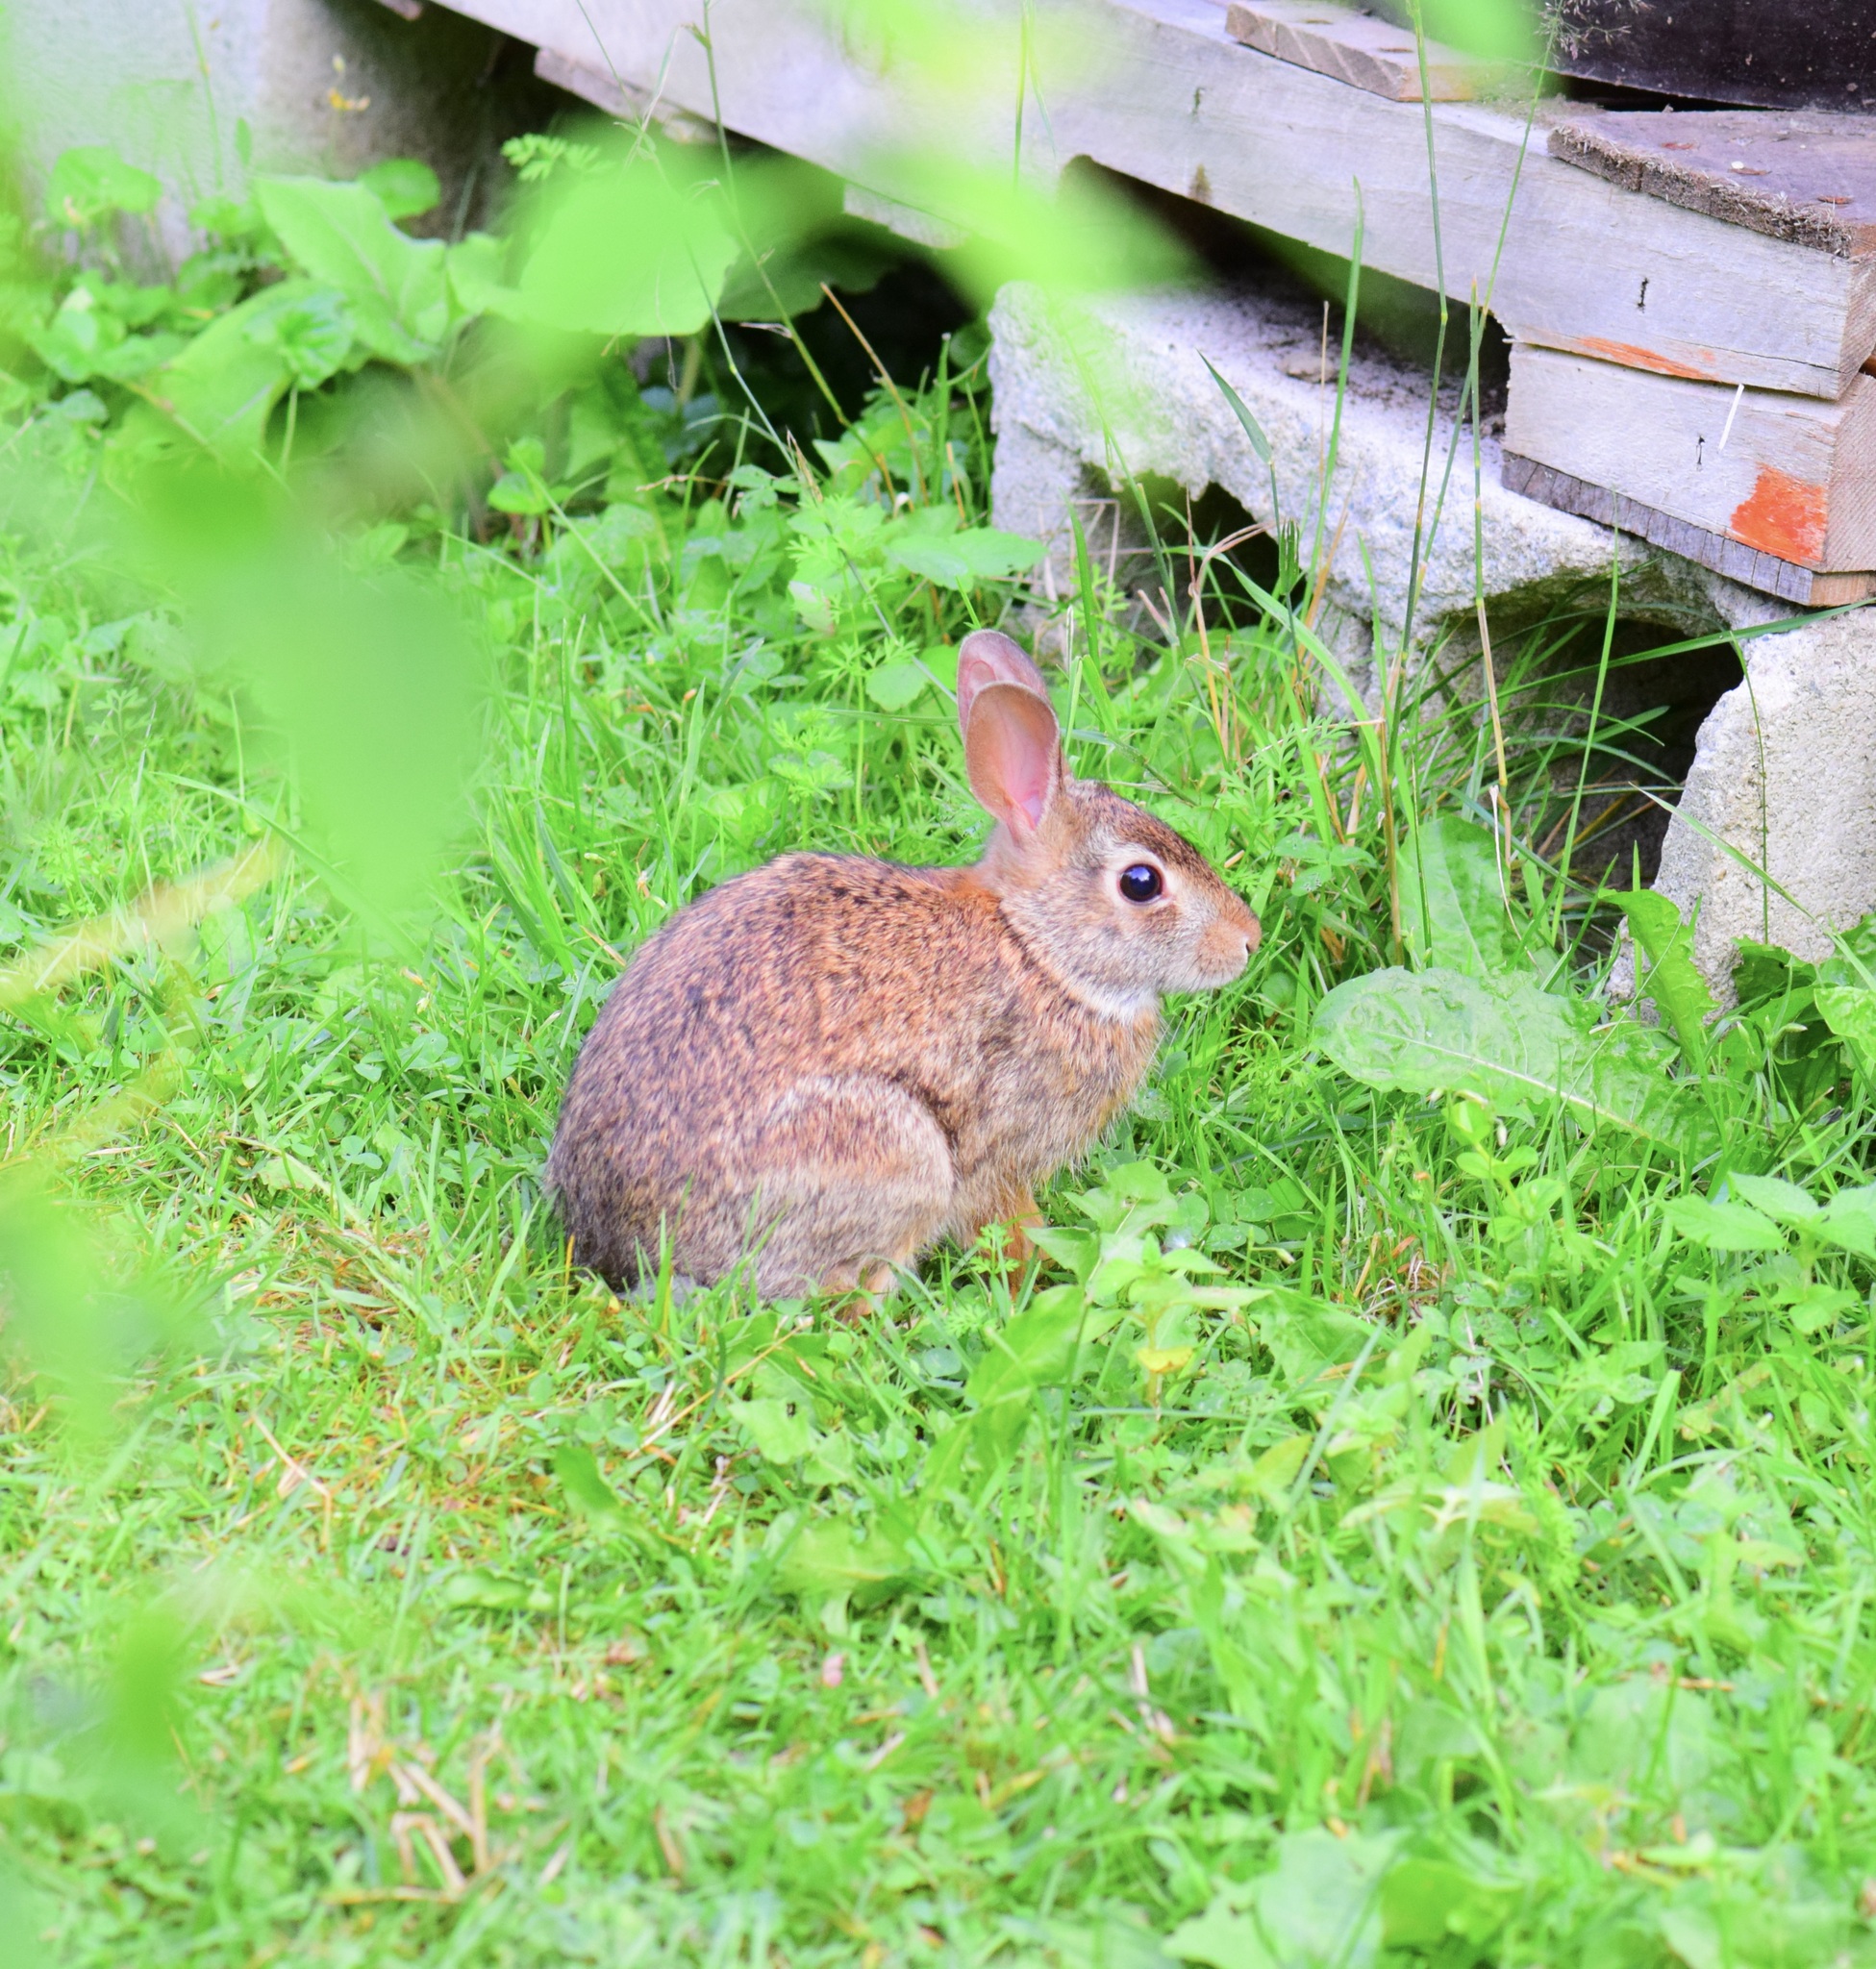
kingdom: Animalia
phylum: Chordata
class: Mammalia
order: Lagomorpha
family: Leporidae
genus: Sylvilagus
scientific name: Sylvilagus floridanus
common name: Eastern cottontail
